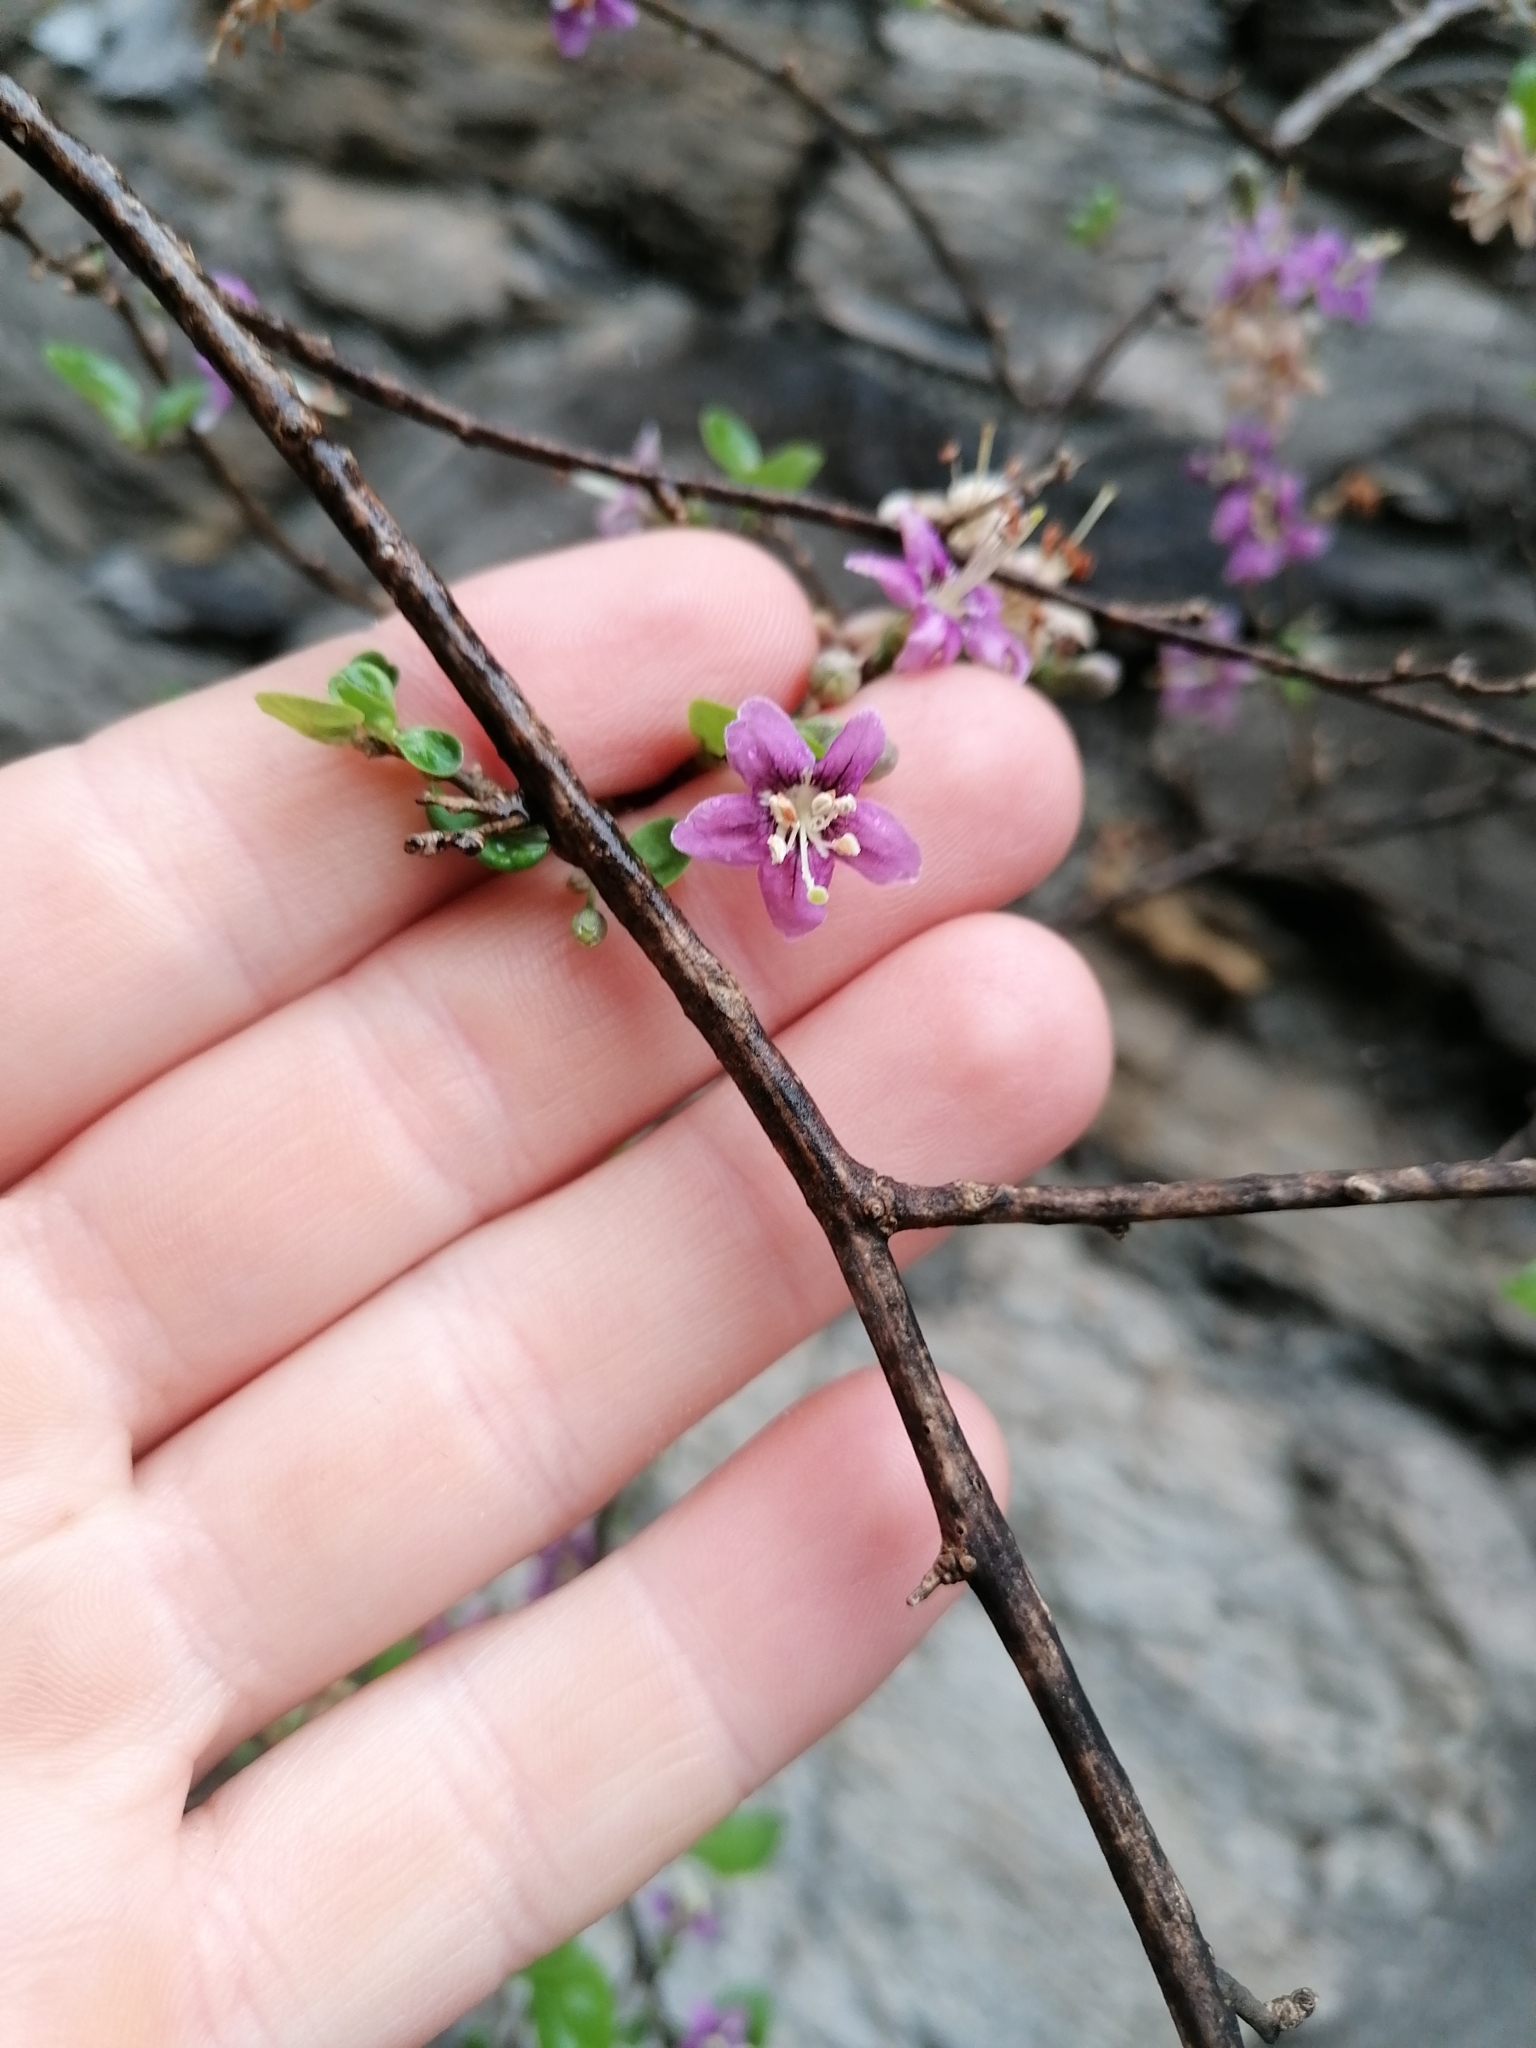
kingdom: Plantae
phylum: Tracheophyta
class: Magnoliopsida
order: Solanales
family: Solanaceae
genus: Lycium
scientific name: Lycium barbarum
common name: Duke of argyll's teaplant
